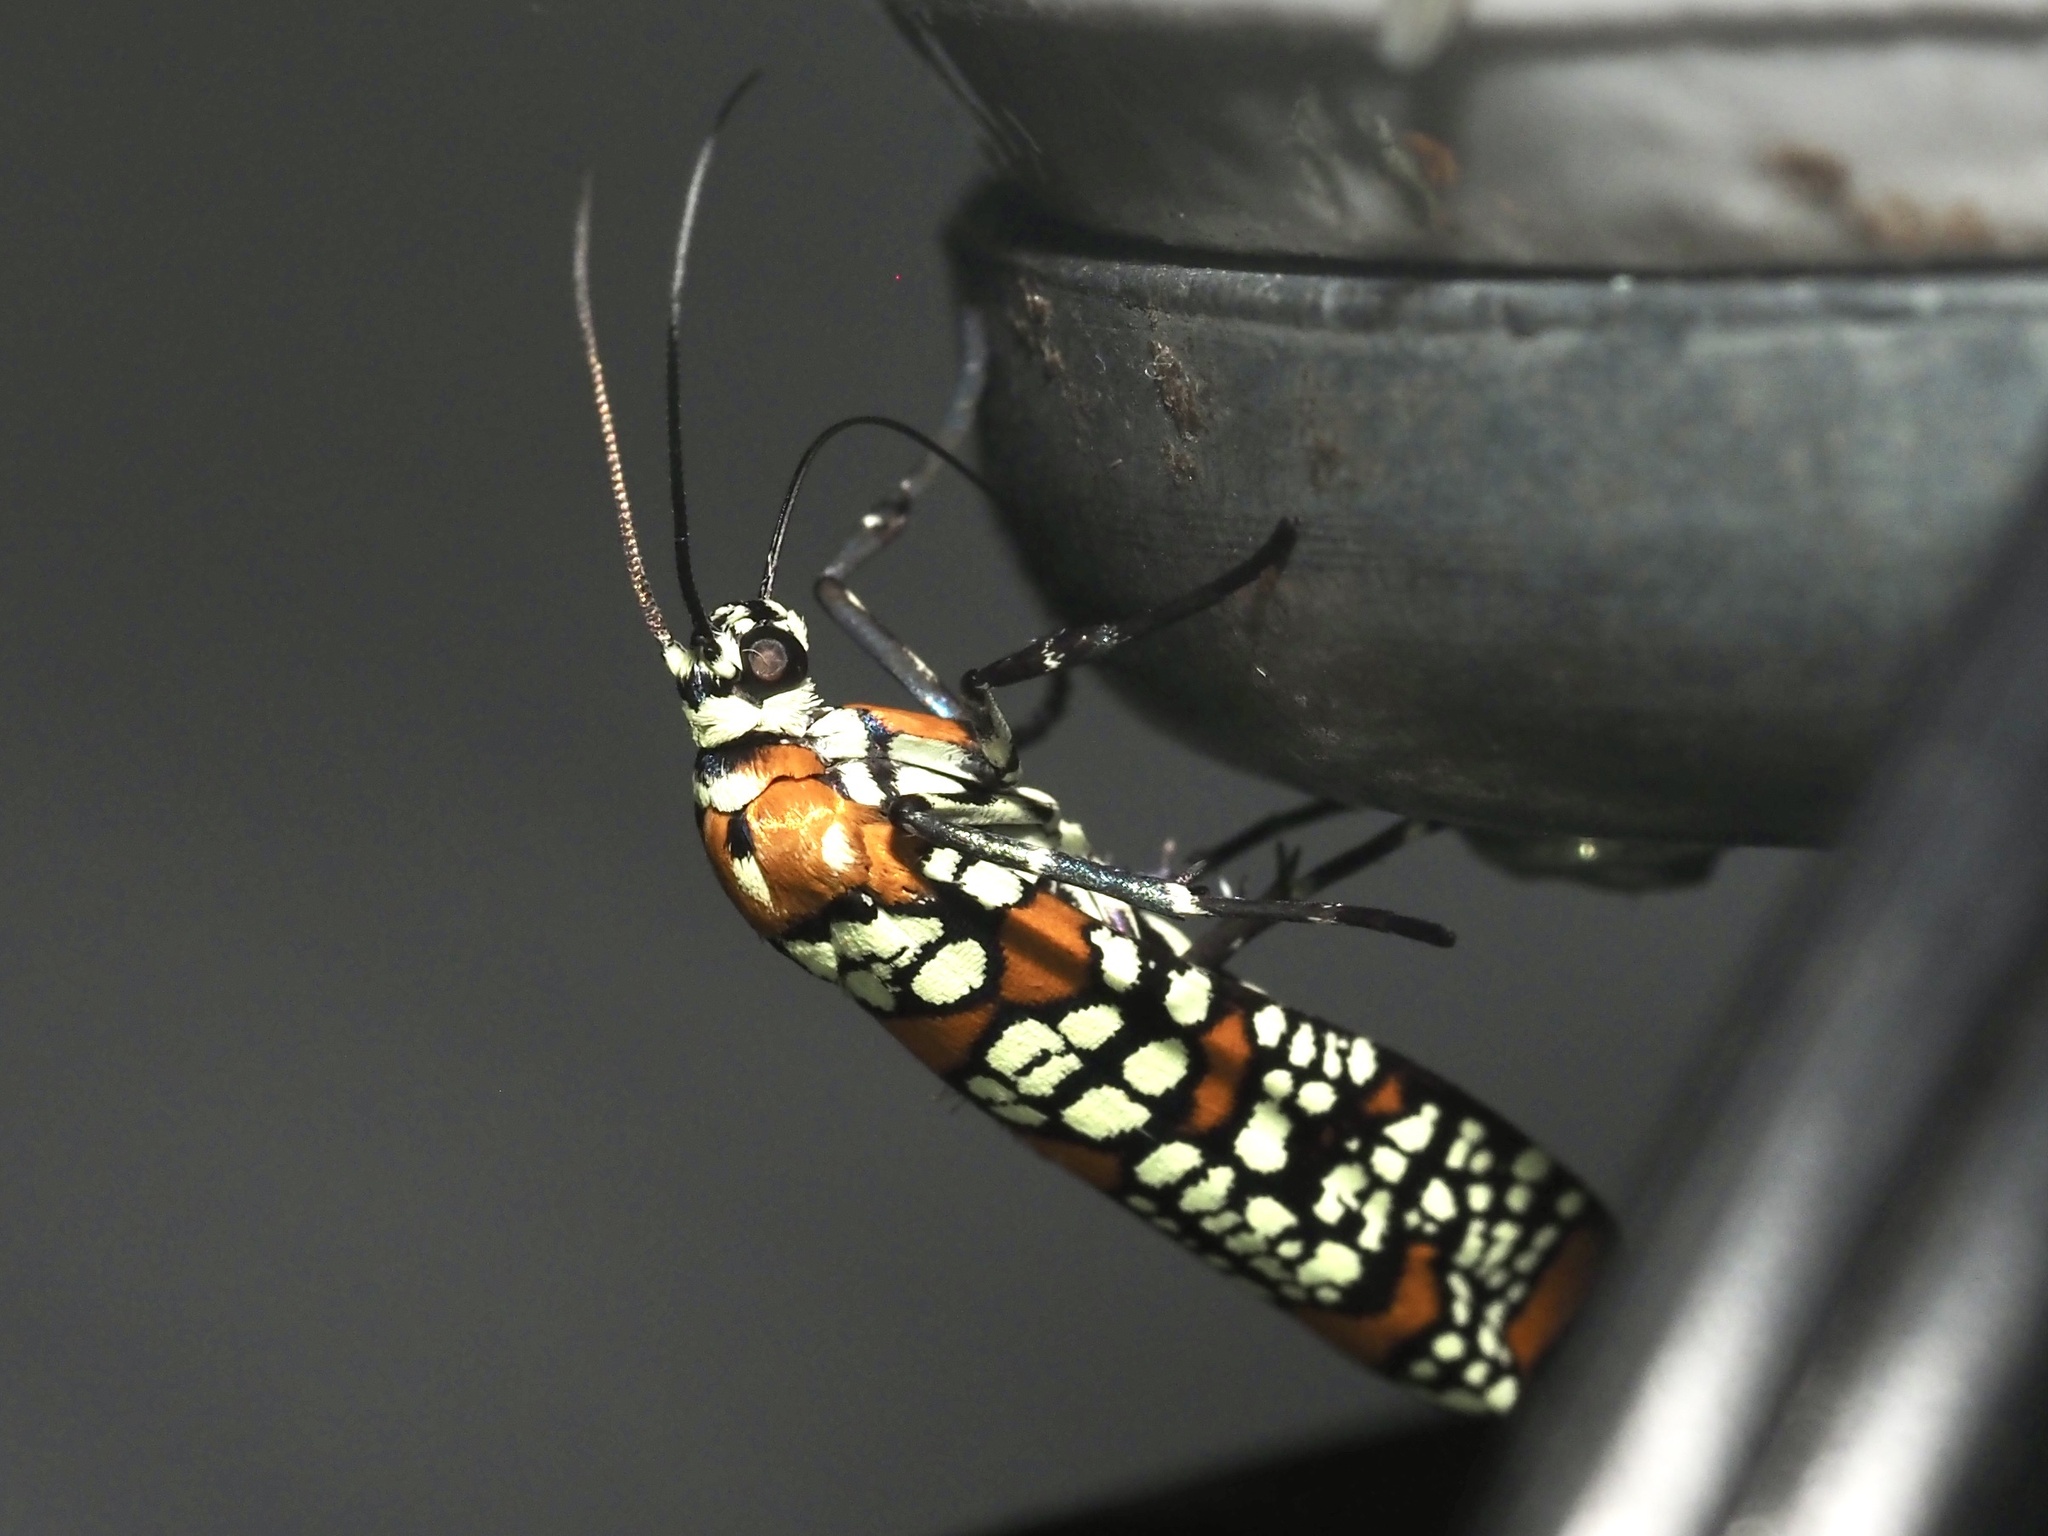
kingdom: Animalia
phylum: Arthropoda
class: Insecta
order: Lepidoptera
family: Attevidae
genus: Atteva
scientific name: Atteva punctella
